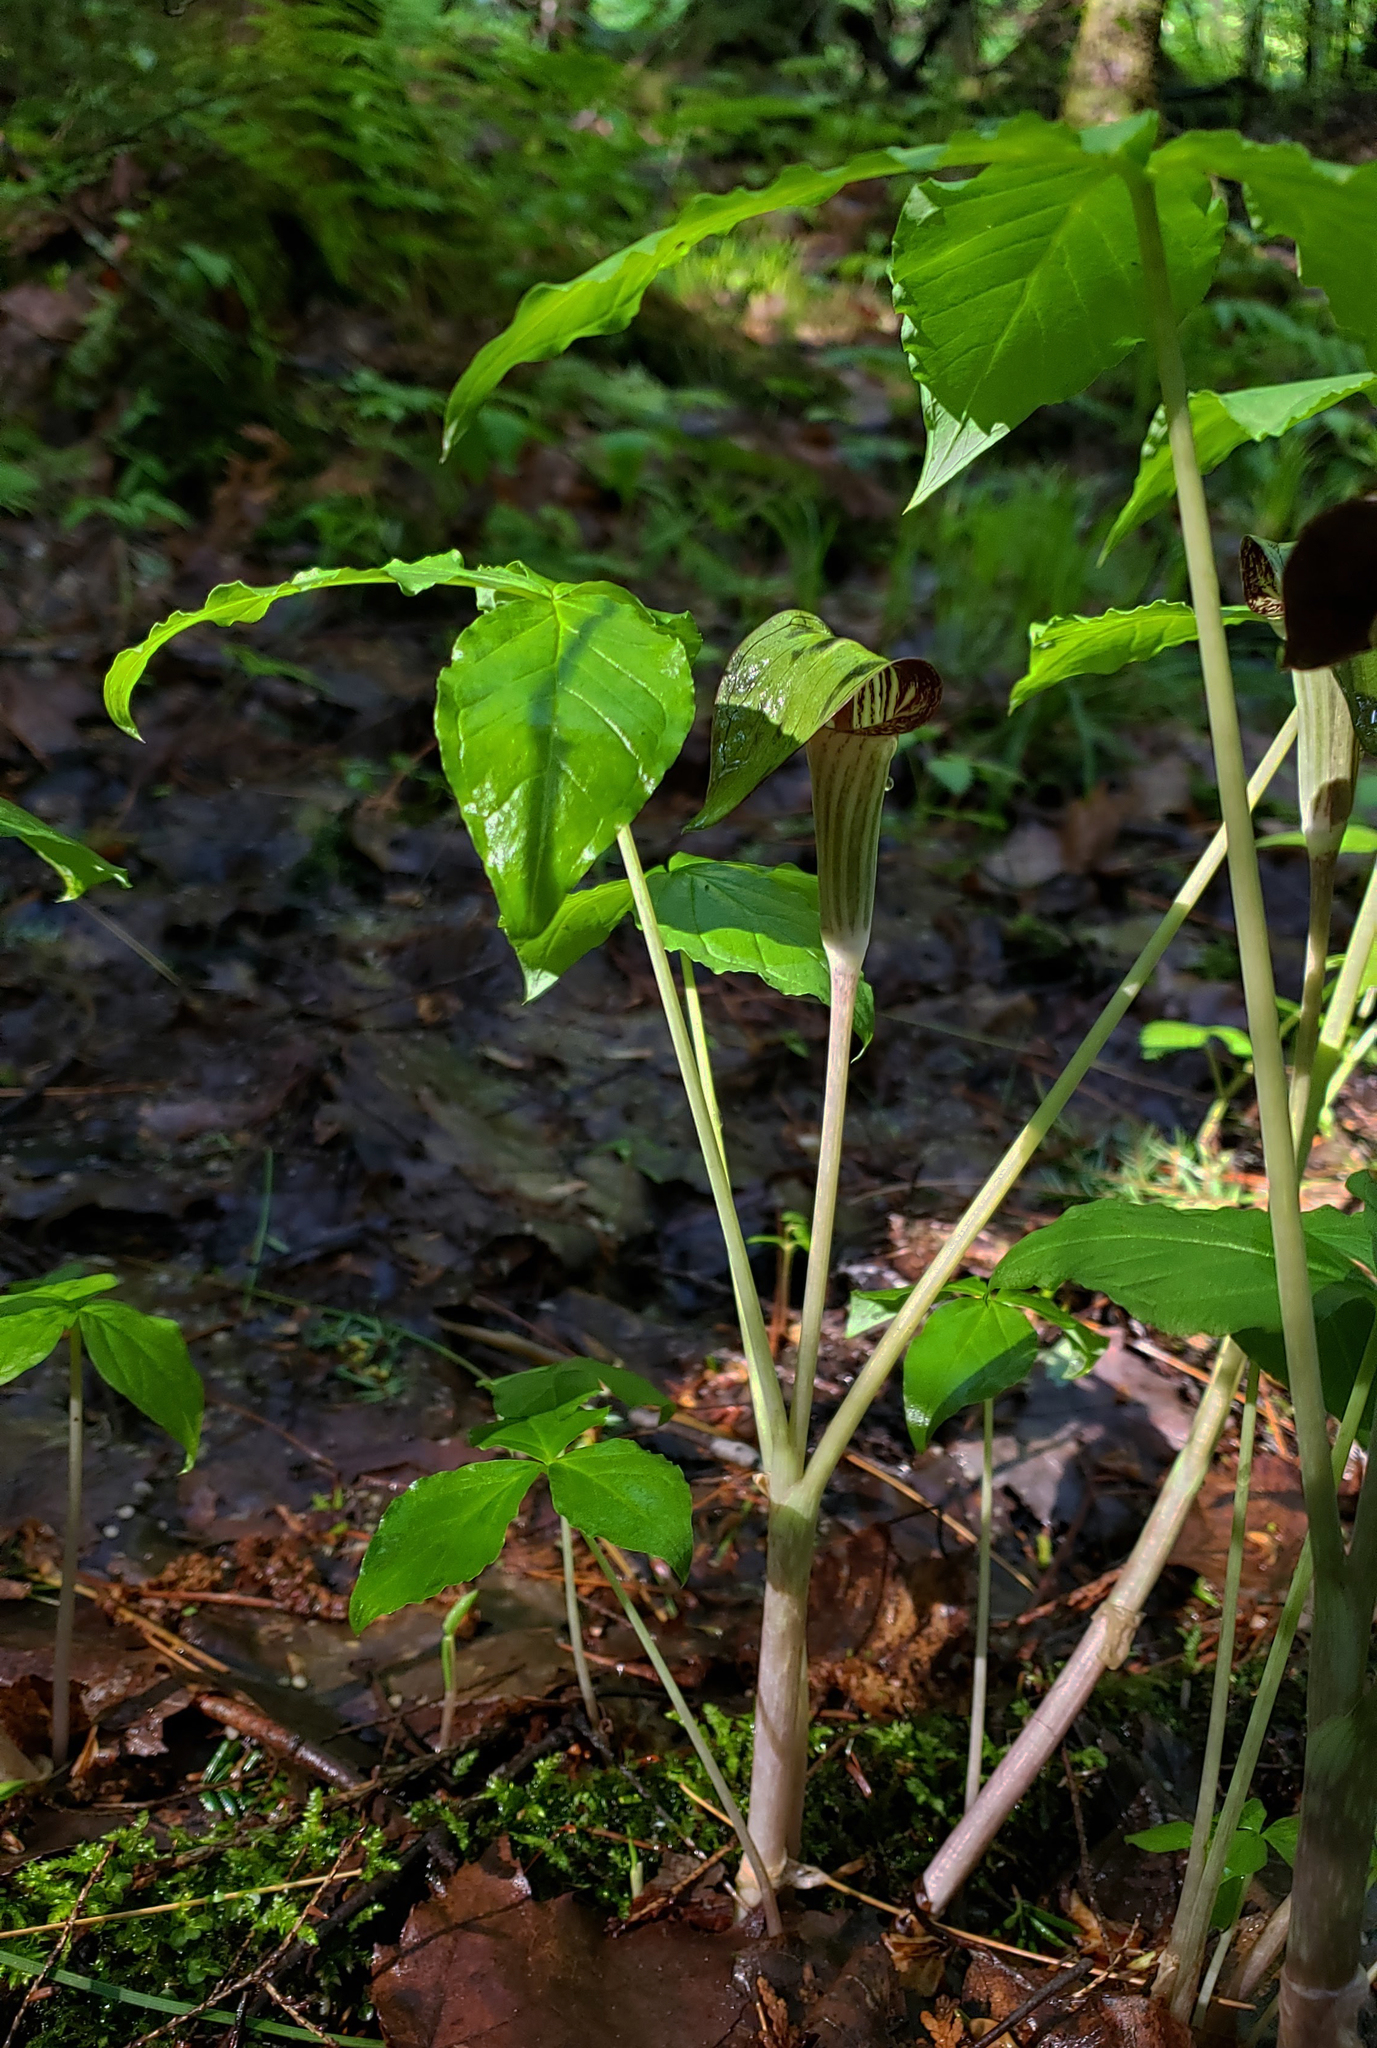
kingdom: Plantae
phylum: Tracheophyta
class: Liliopsida
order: Alismatales
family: Araceae
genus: Arisaema
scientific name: Arisaema triphyllum
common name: Jack-in-the-pulpit
